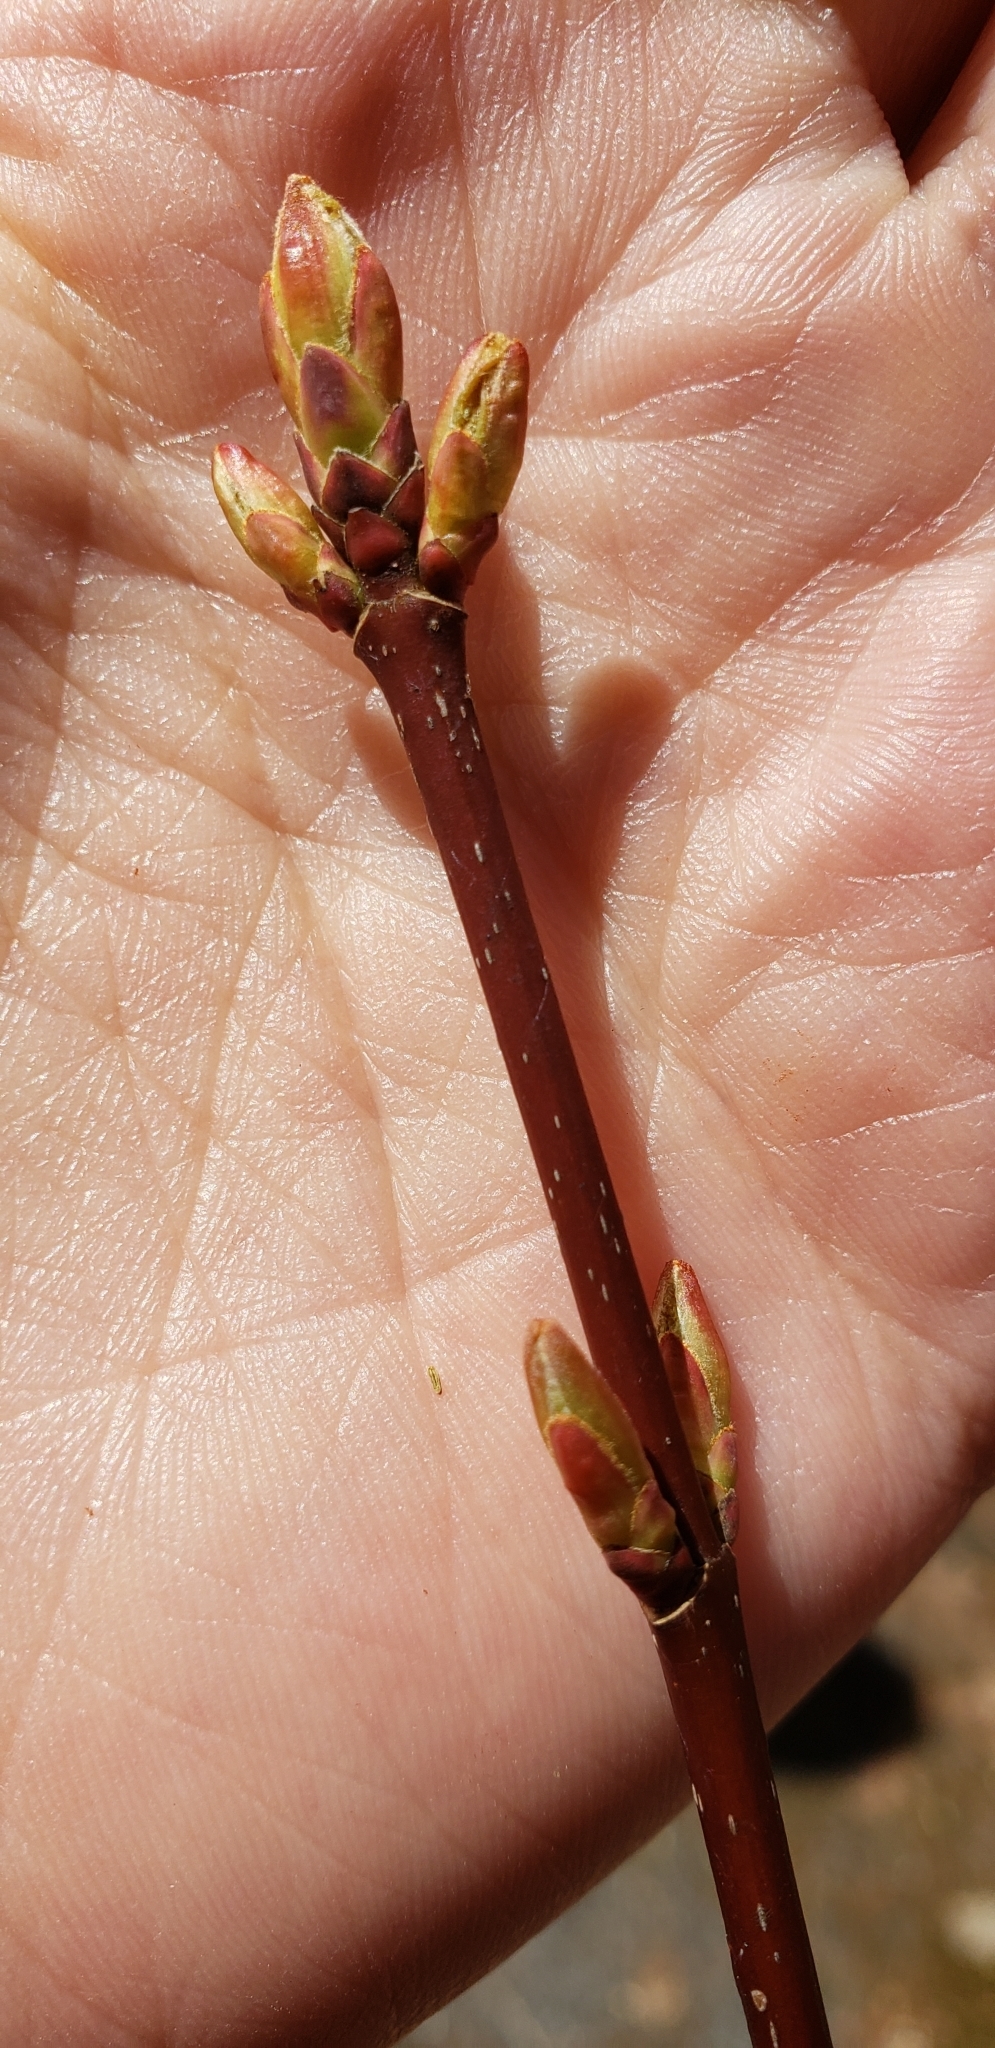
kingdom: Plantae
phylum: Tracheophyta
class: Magnoliopsida
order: Sapindales
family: Sapindaceae
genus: Acer
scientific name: Acer rubrum
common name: Red maple
